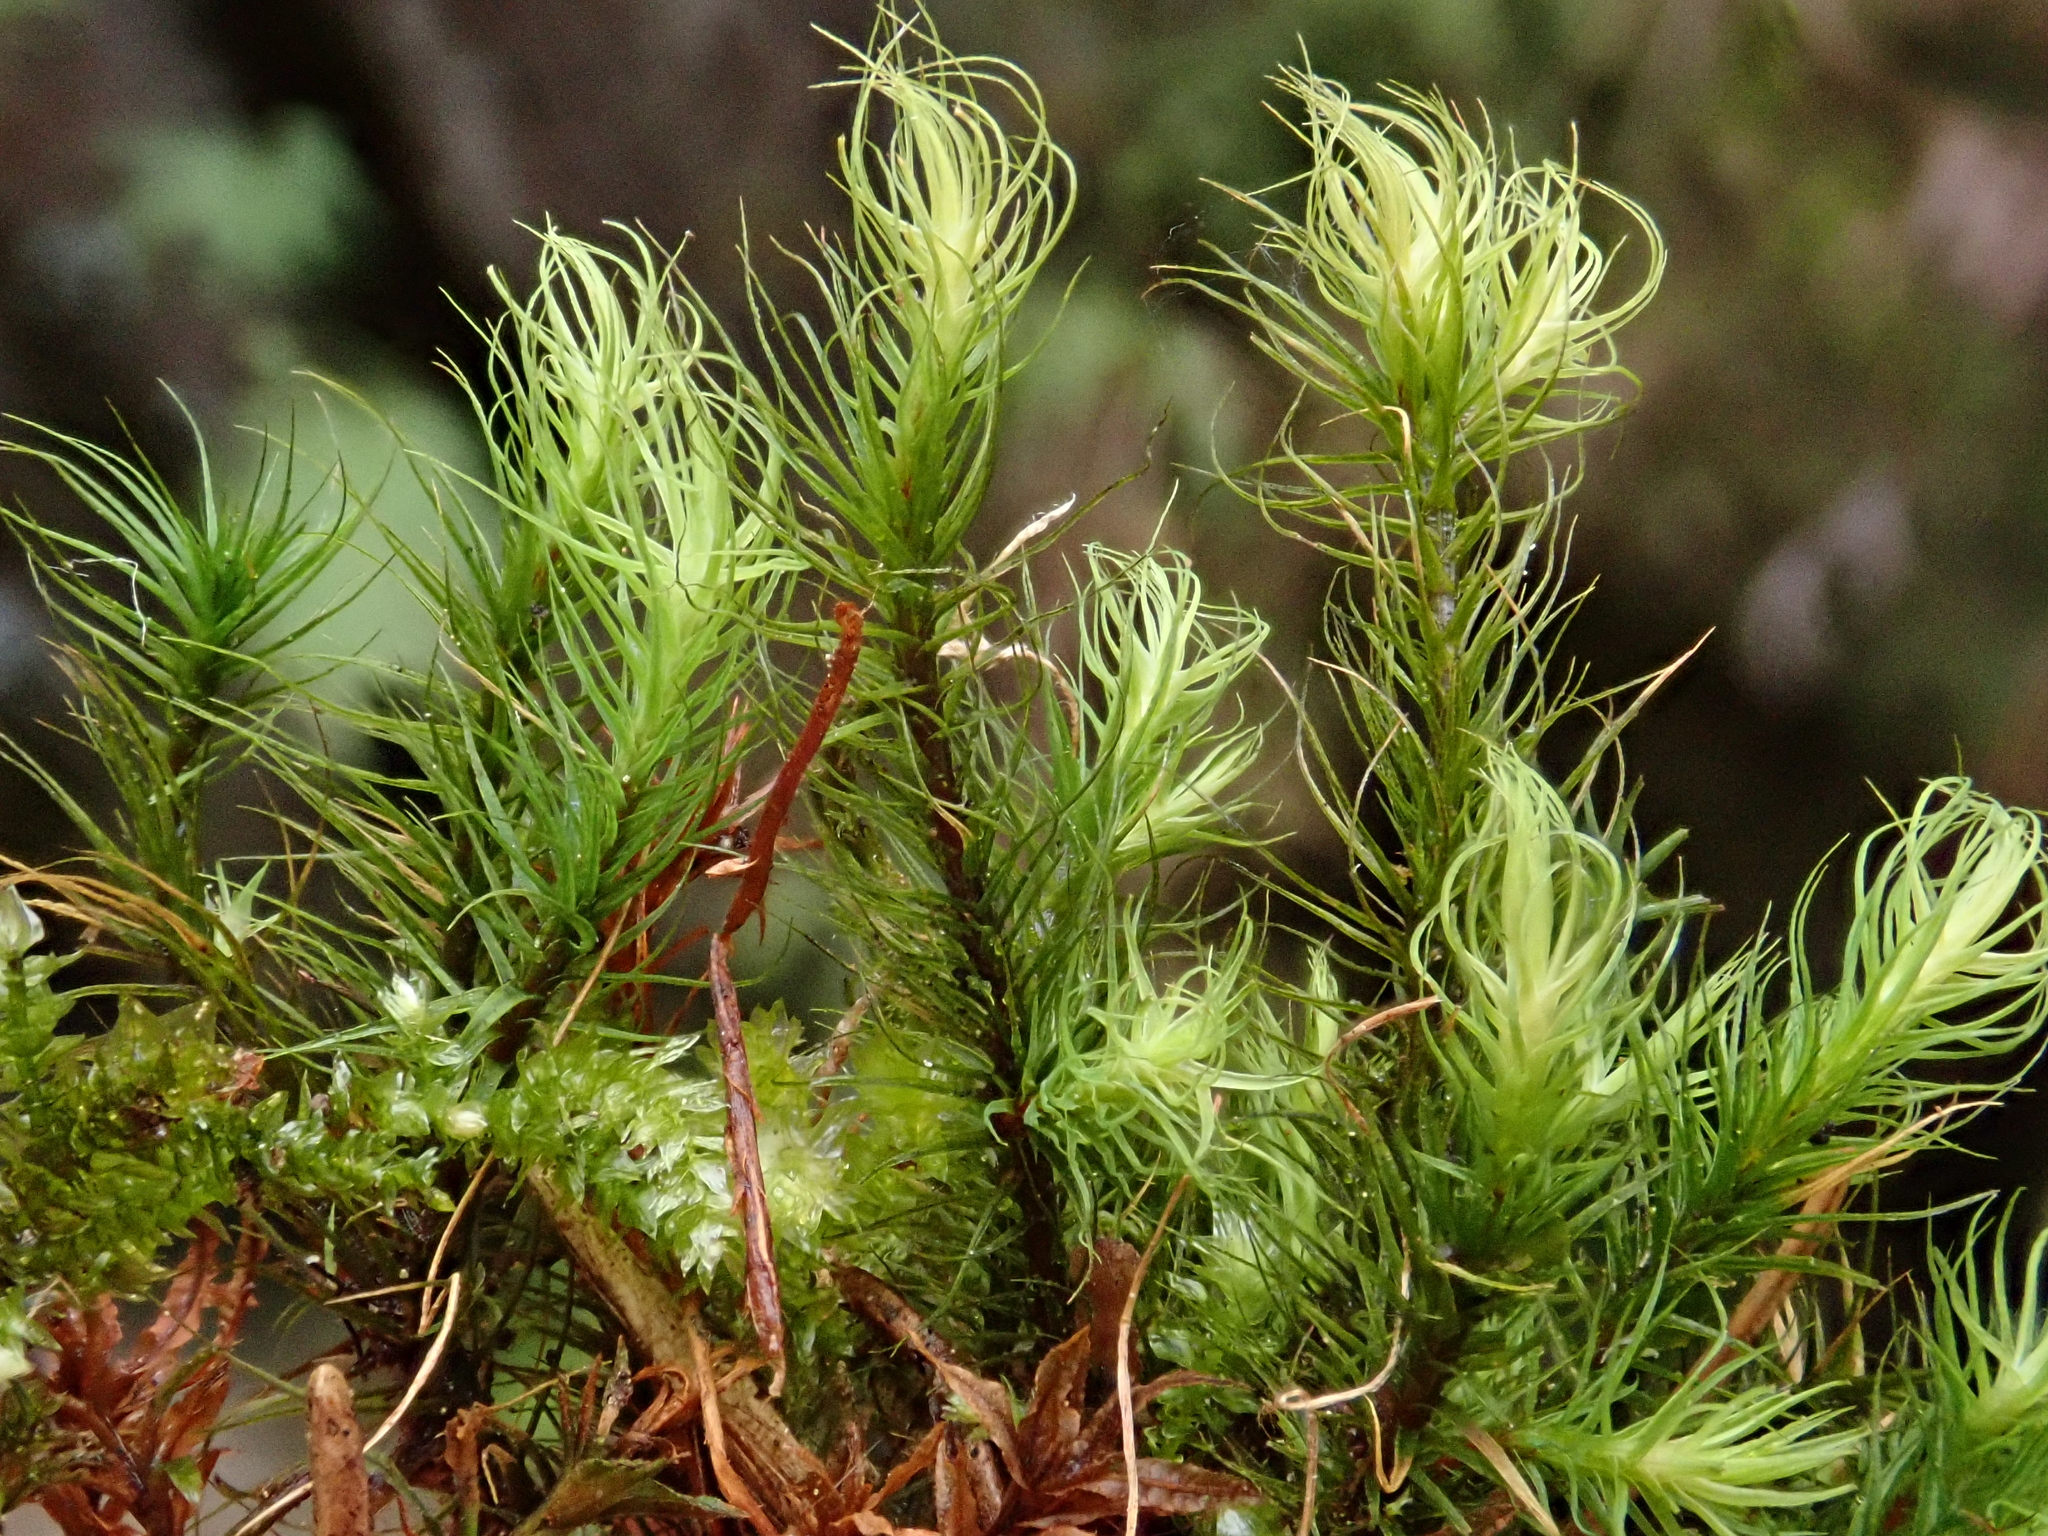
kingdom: Plantae
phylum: Bryophyta
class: Bryopsida
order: Bartramiales
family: Bartramiaceae
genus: Bartramia
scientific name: Bartramia halleriana
